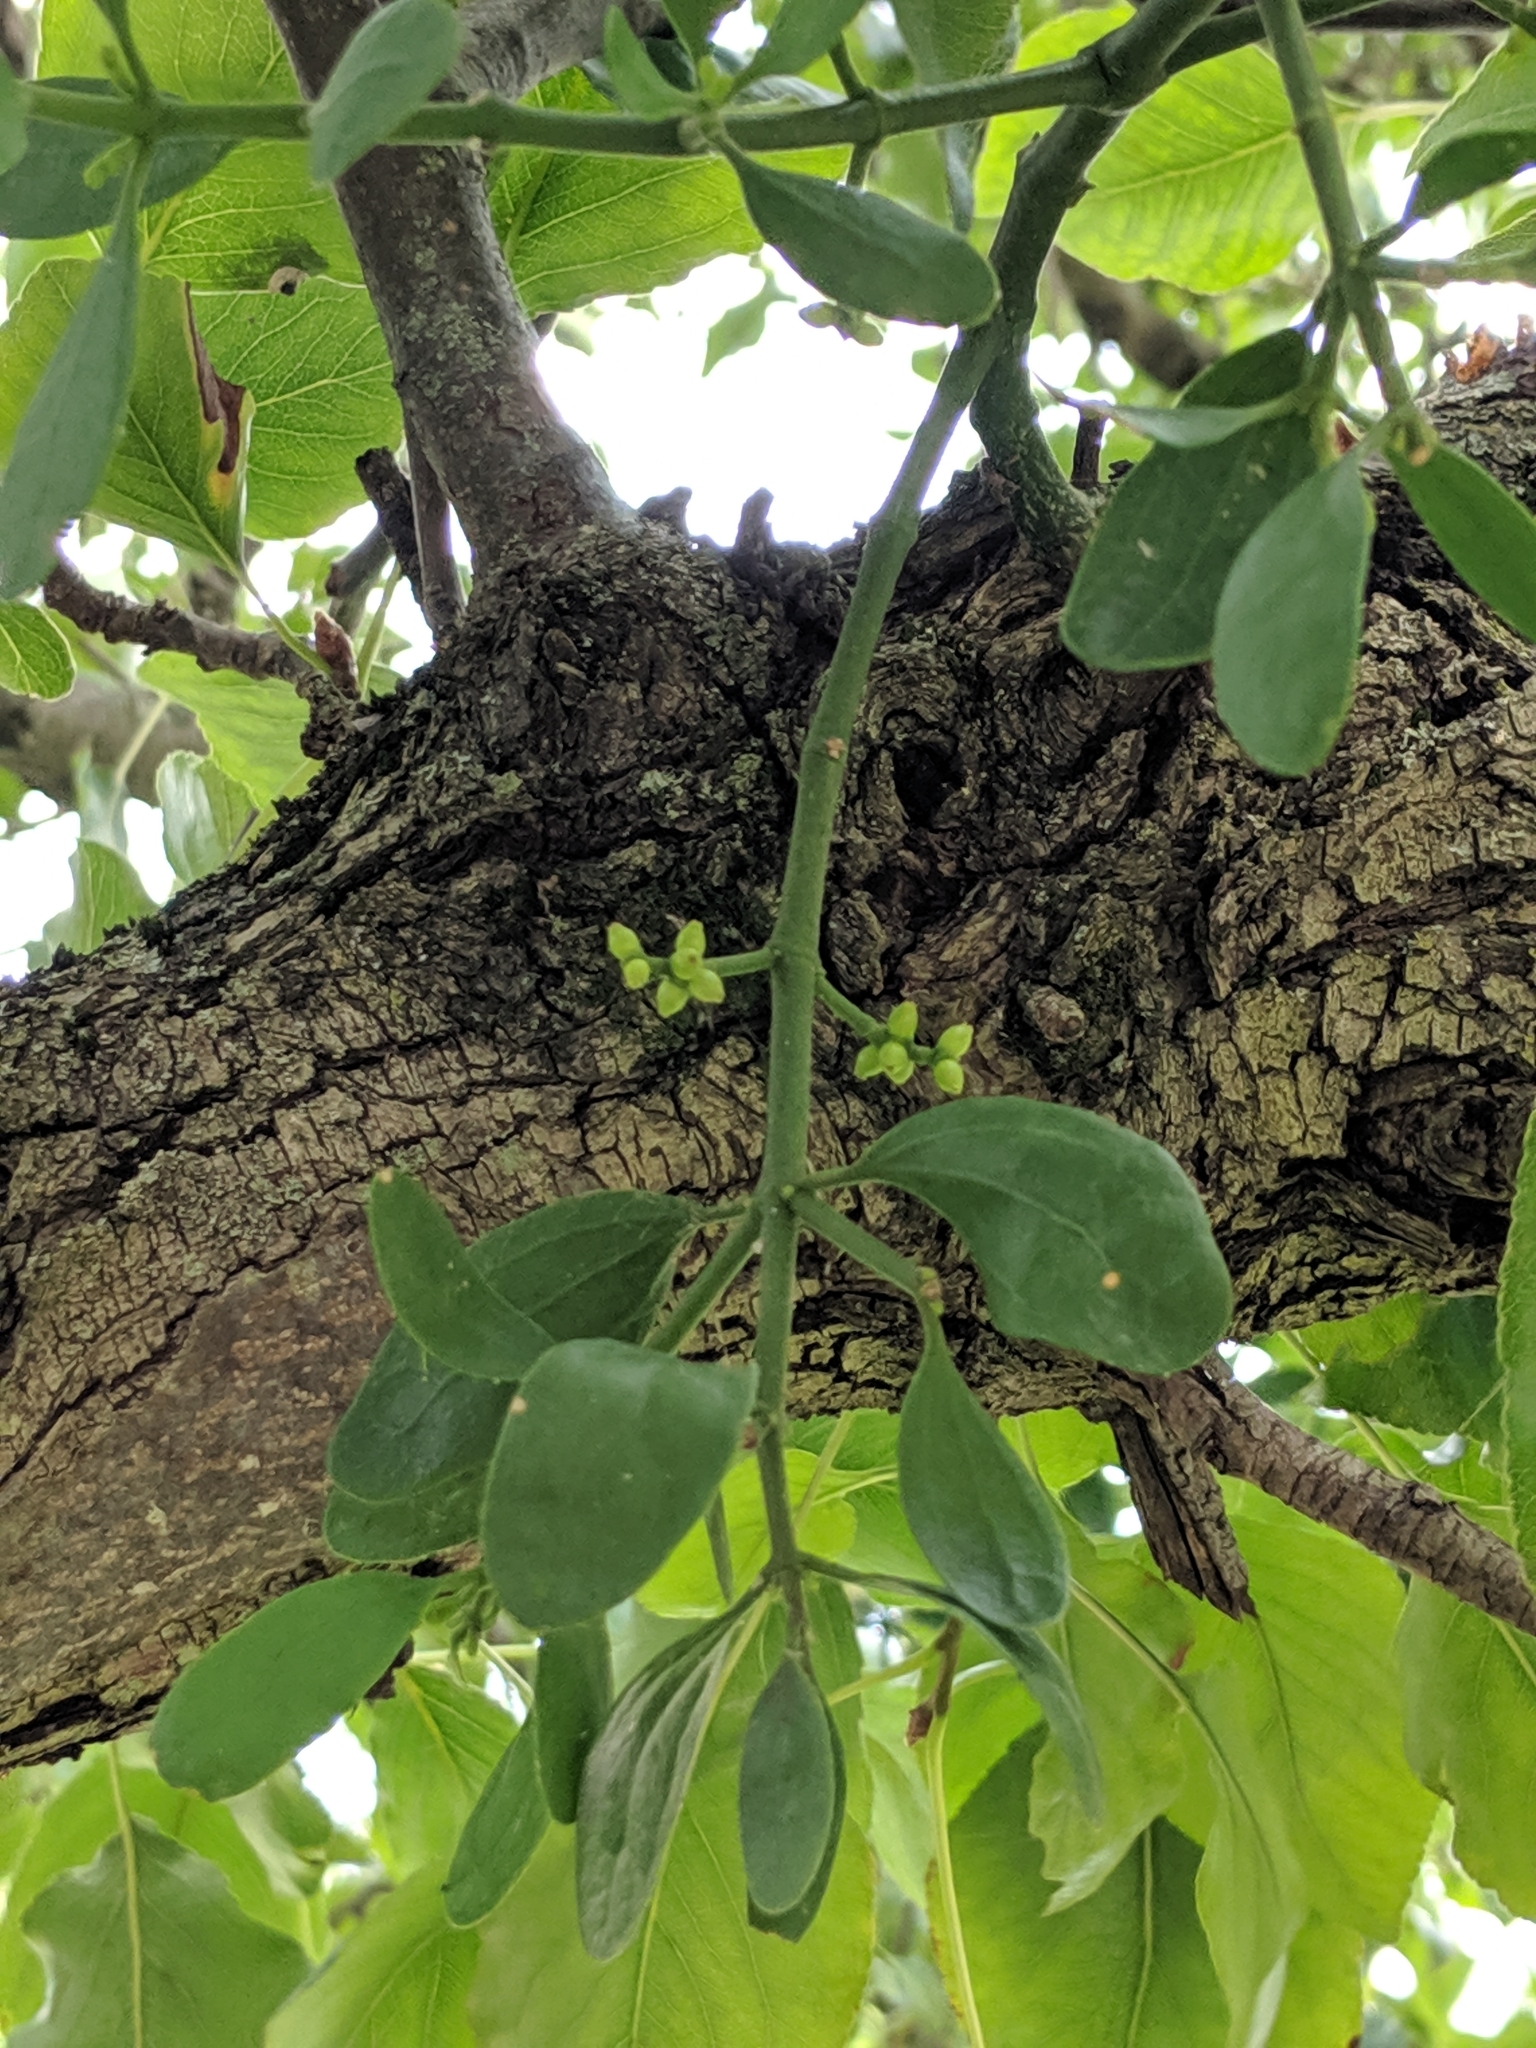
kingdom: Plantae
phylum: Tracheophyta
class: Magnoliopsida
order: Santalales
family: Viscaceae
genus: Phoradendron
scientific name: Phoradendron leucarpum
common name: Pacific mistletoe
